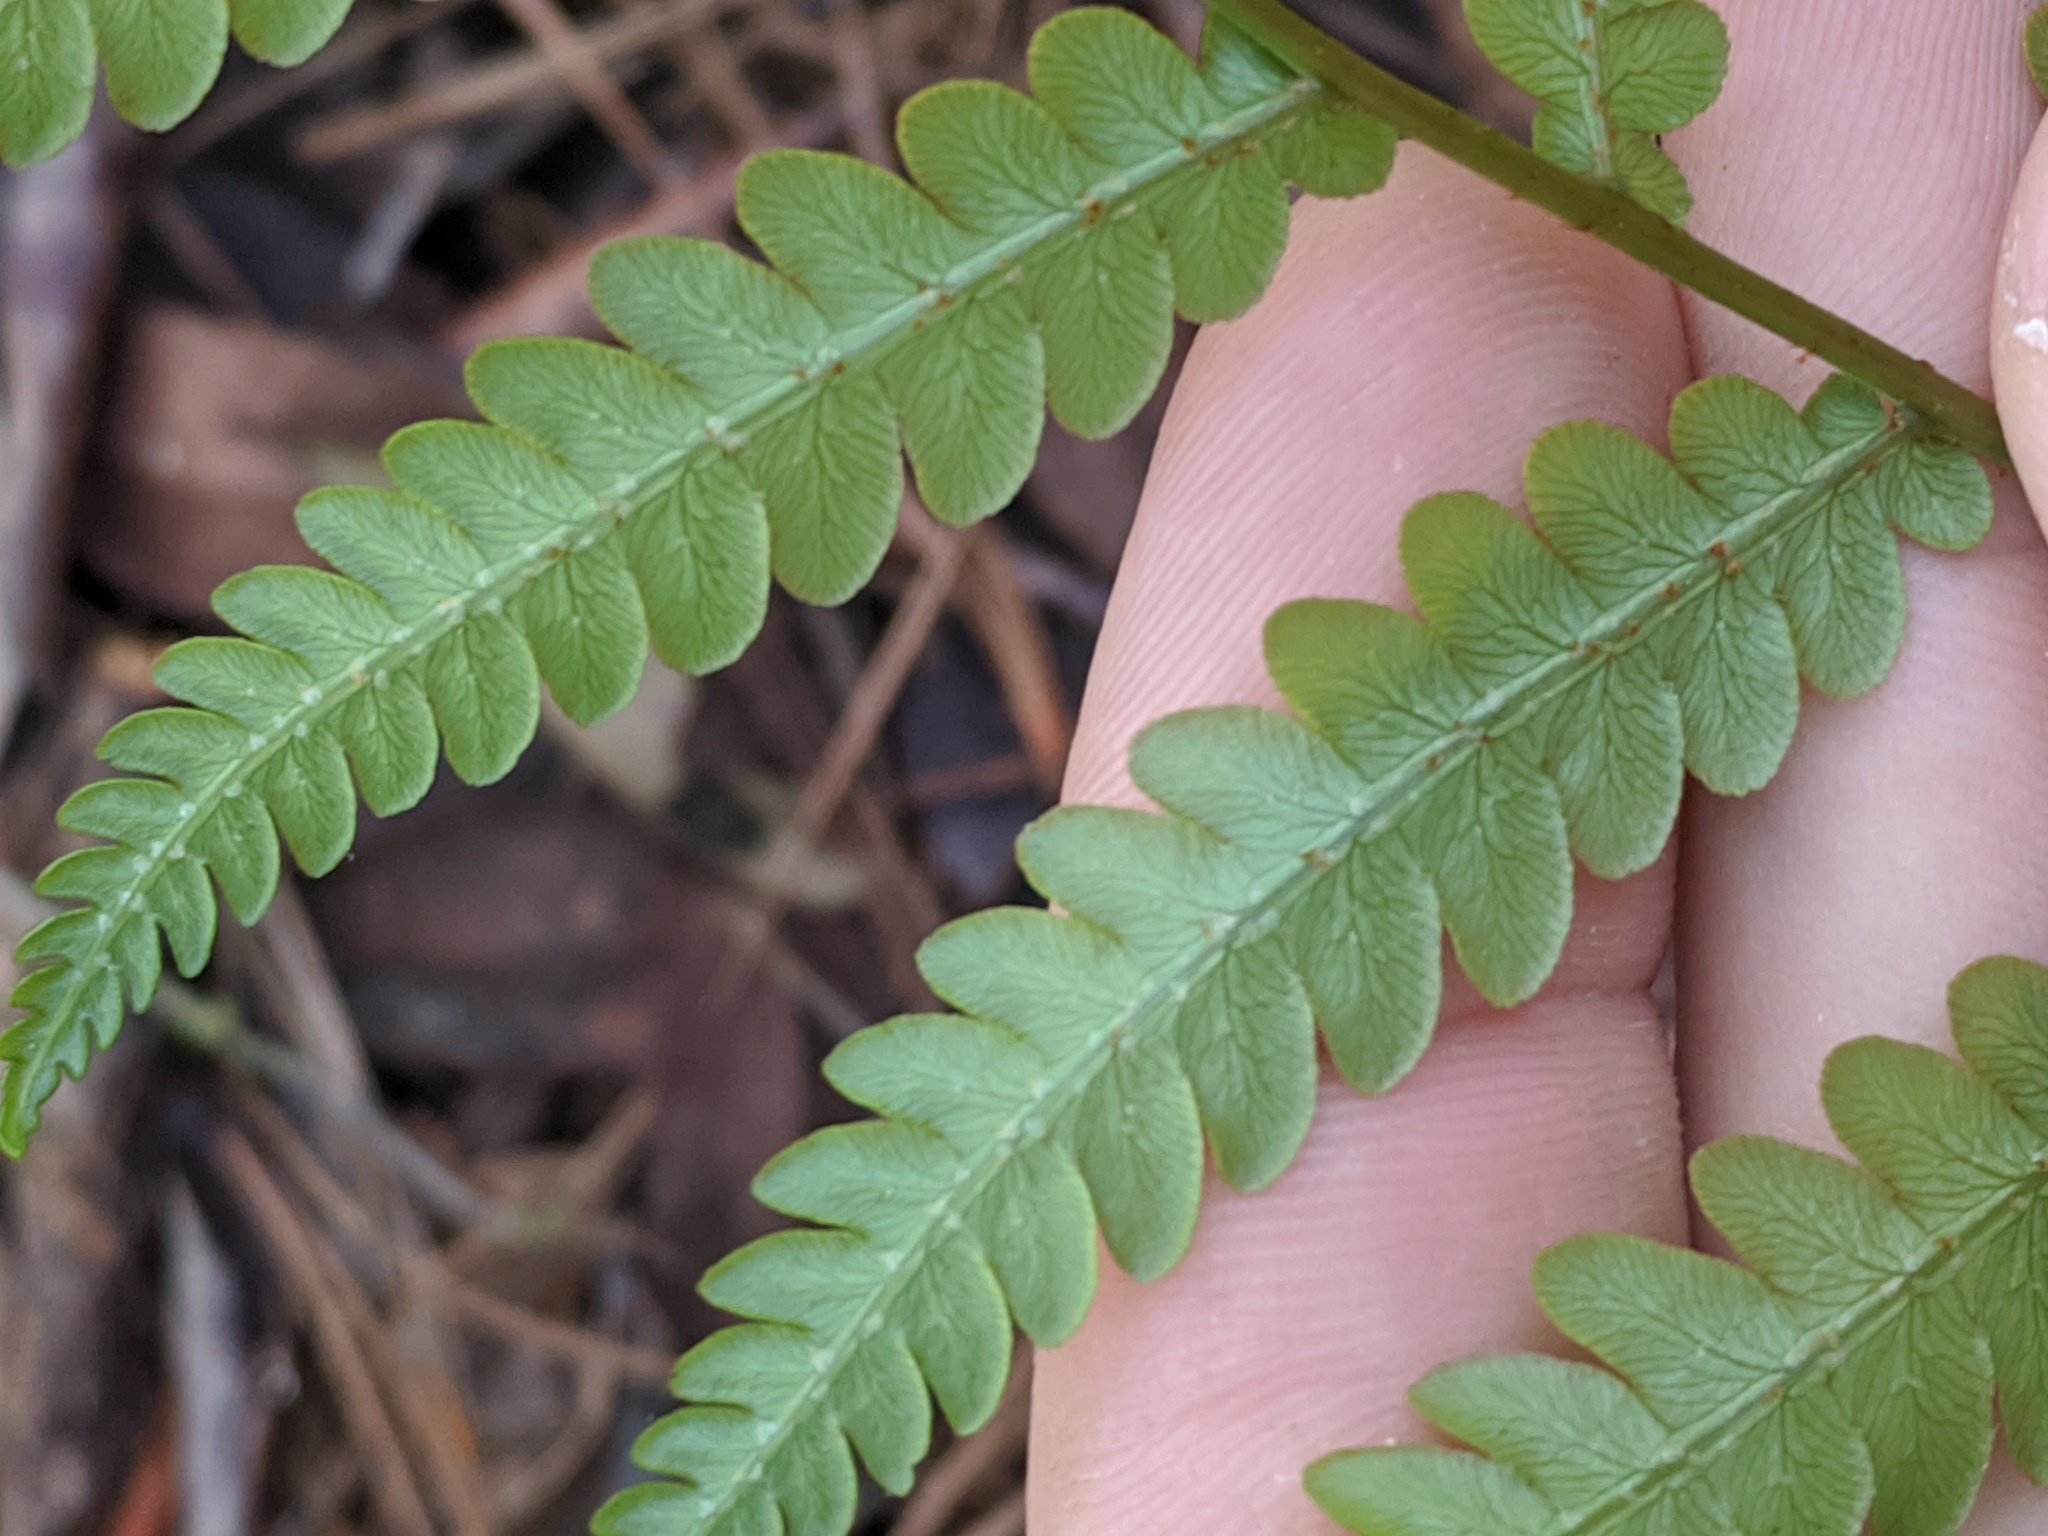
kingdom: Plantae
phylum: Tracheophyta
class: Polypodiopsida
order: Polypodiales
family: Blechnaceae
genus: Anchistea
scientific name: Anchistea virginica
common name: Virginia chain fern
